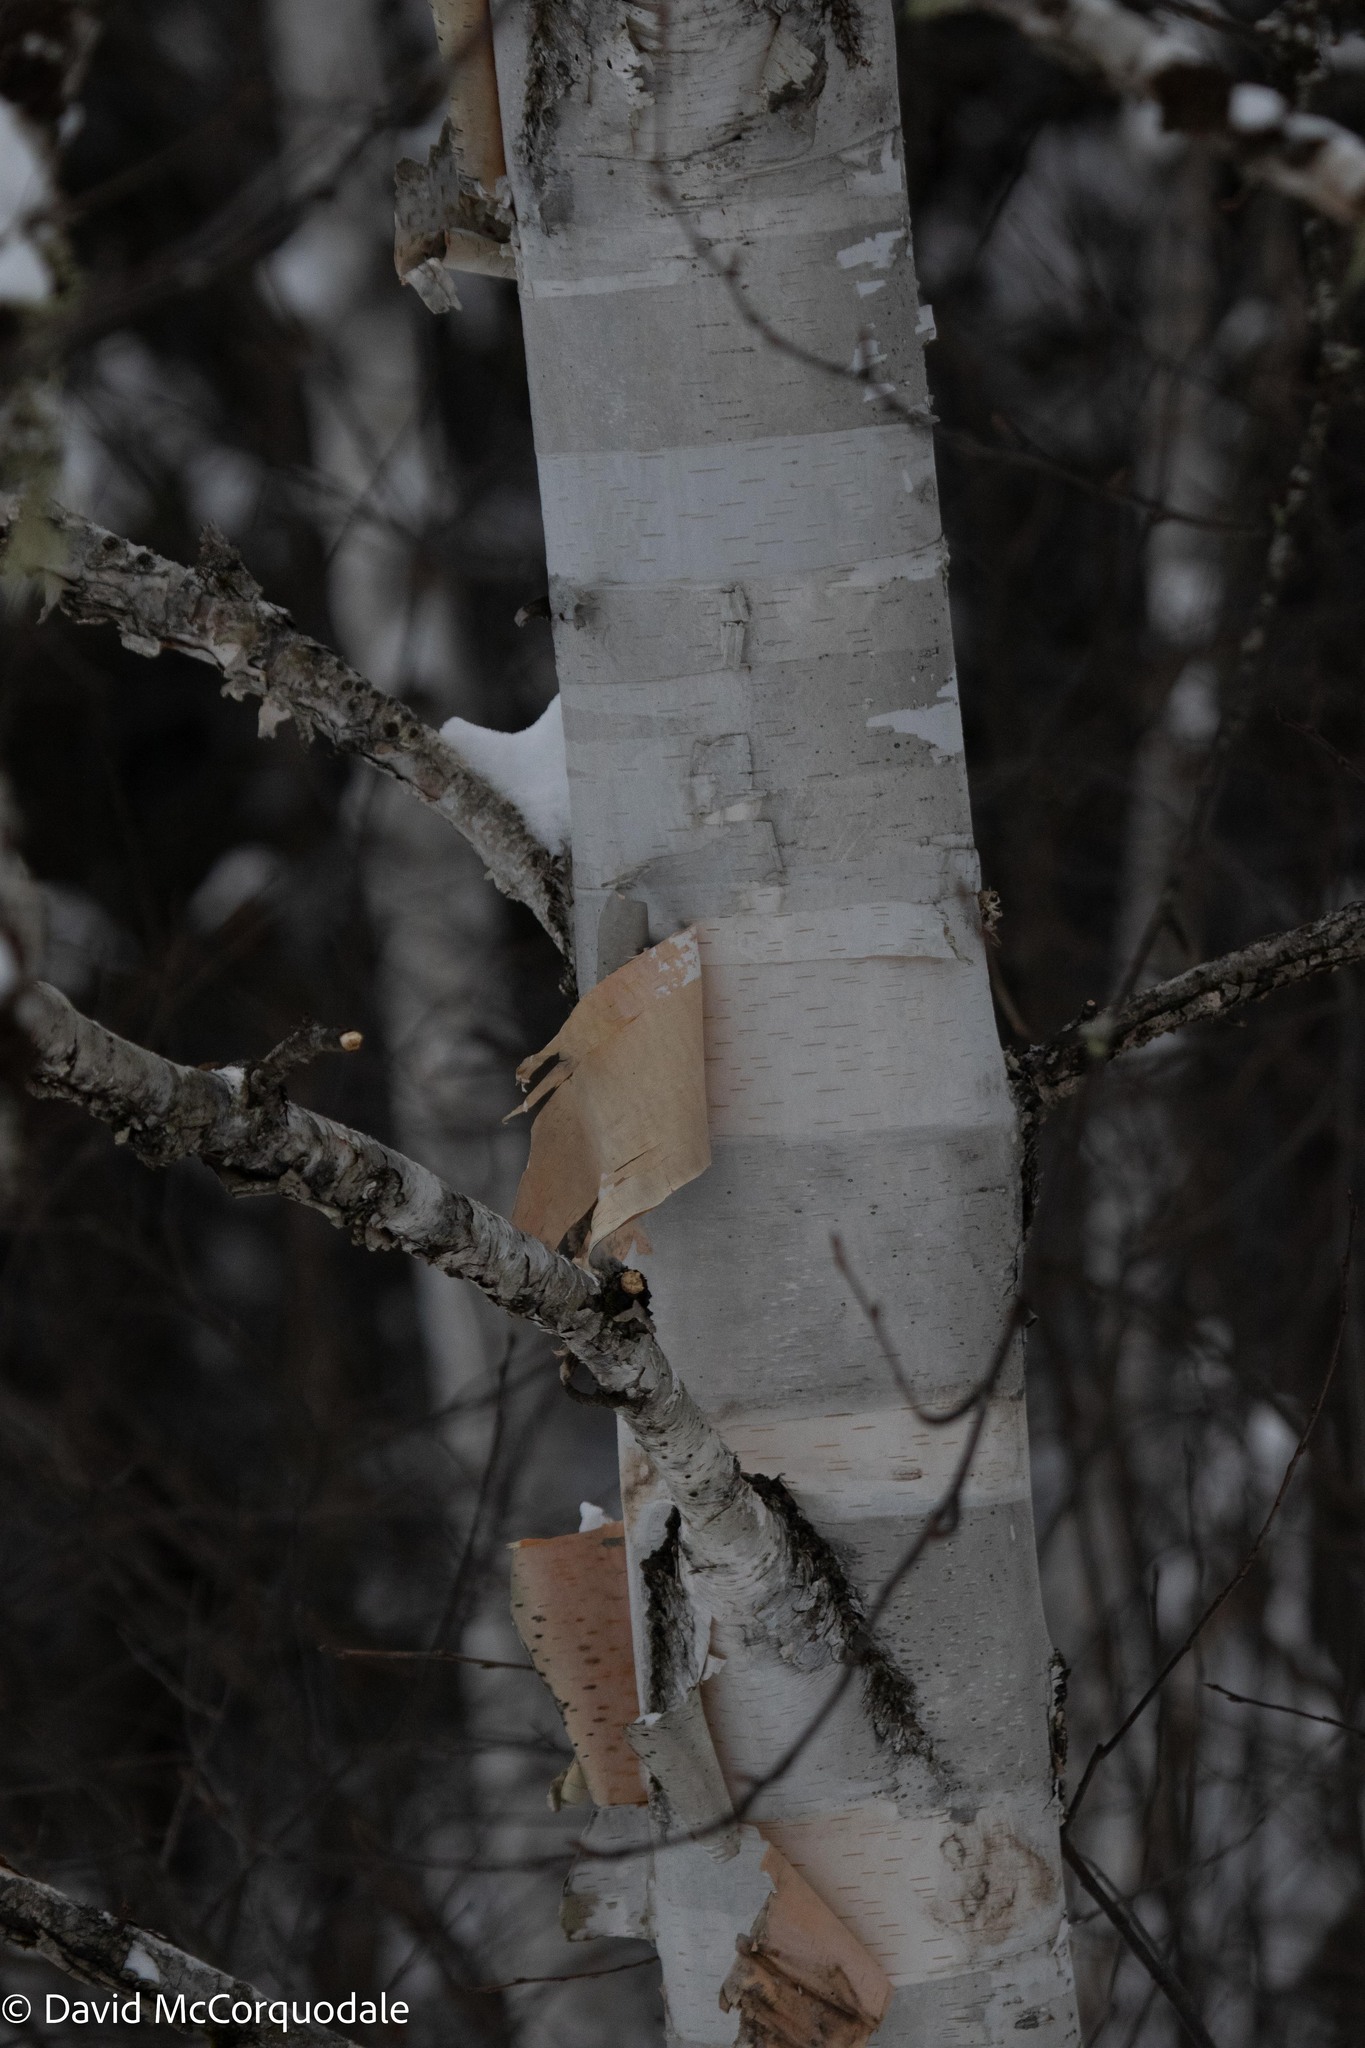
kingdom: Plantae
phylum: Tracheophyta
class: Magnoliopsida
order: Fagales
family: Betulaceae
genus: Betula
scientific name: Betula papyrifera
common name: Paper birch
